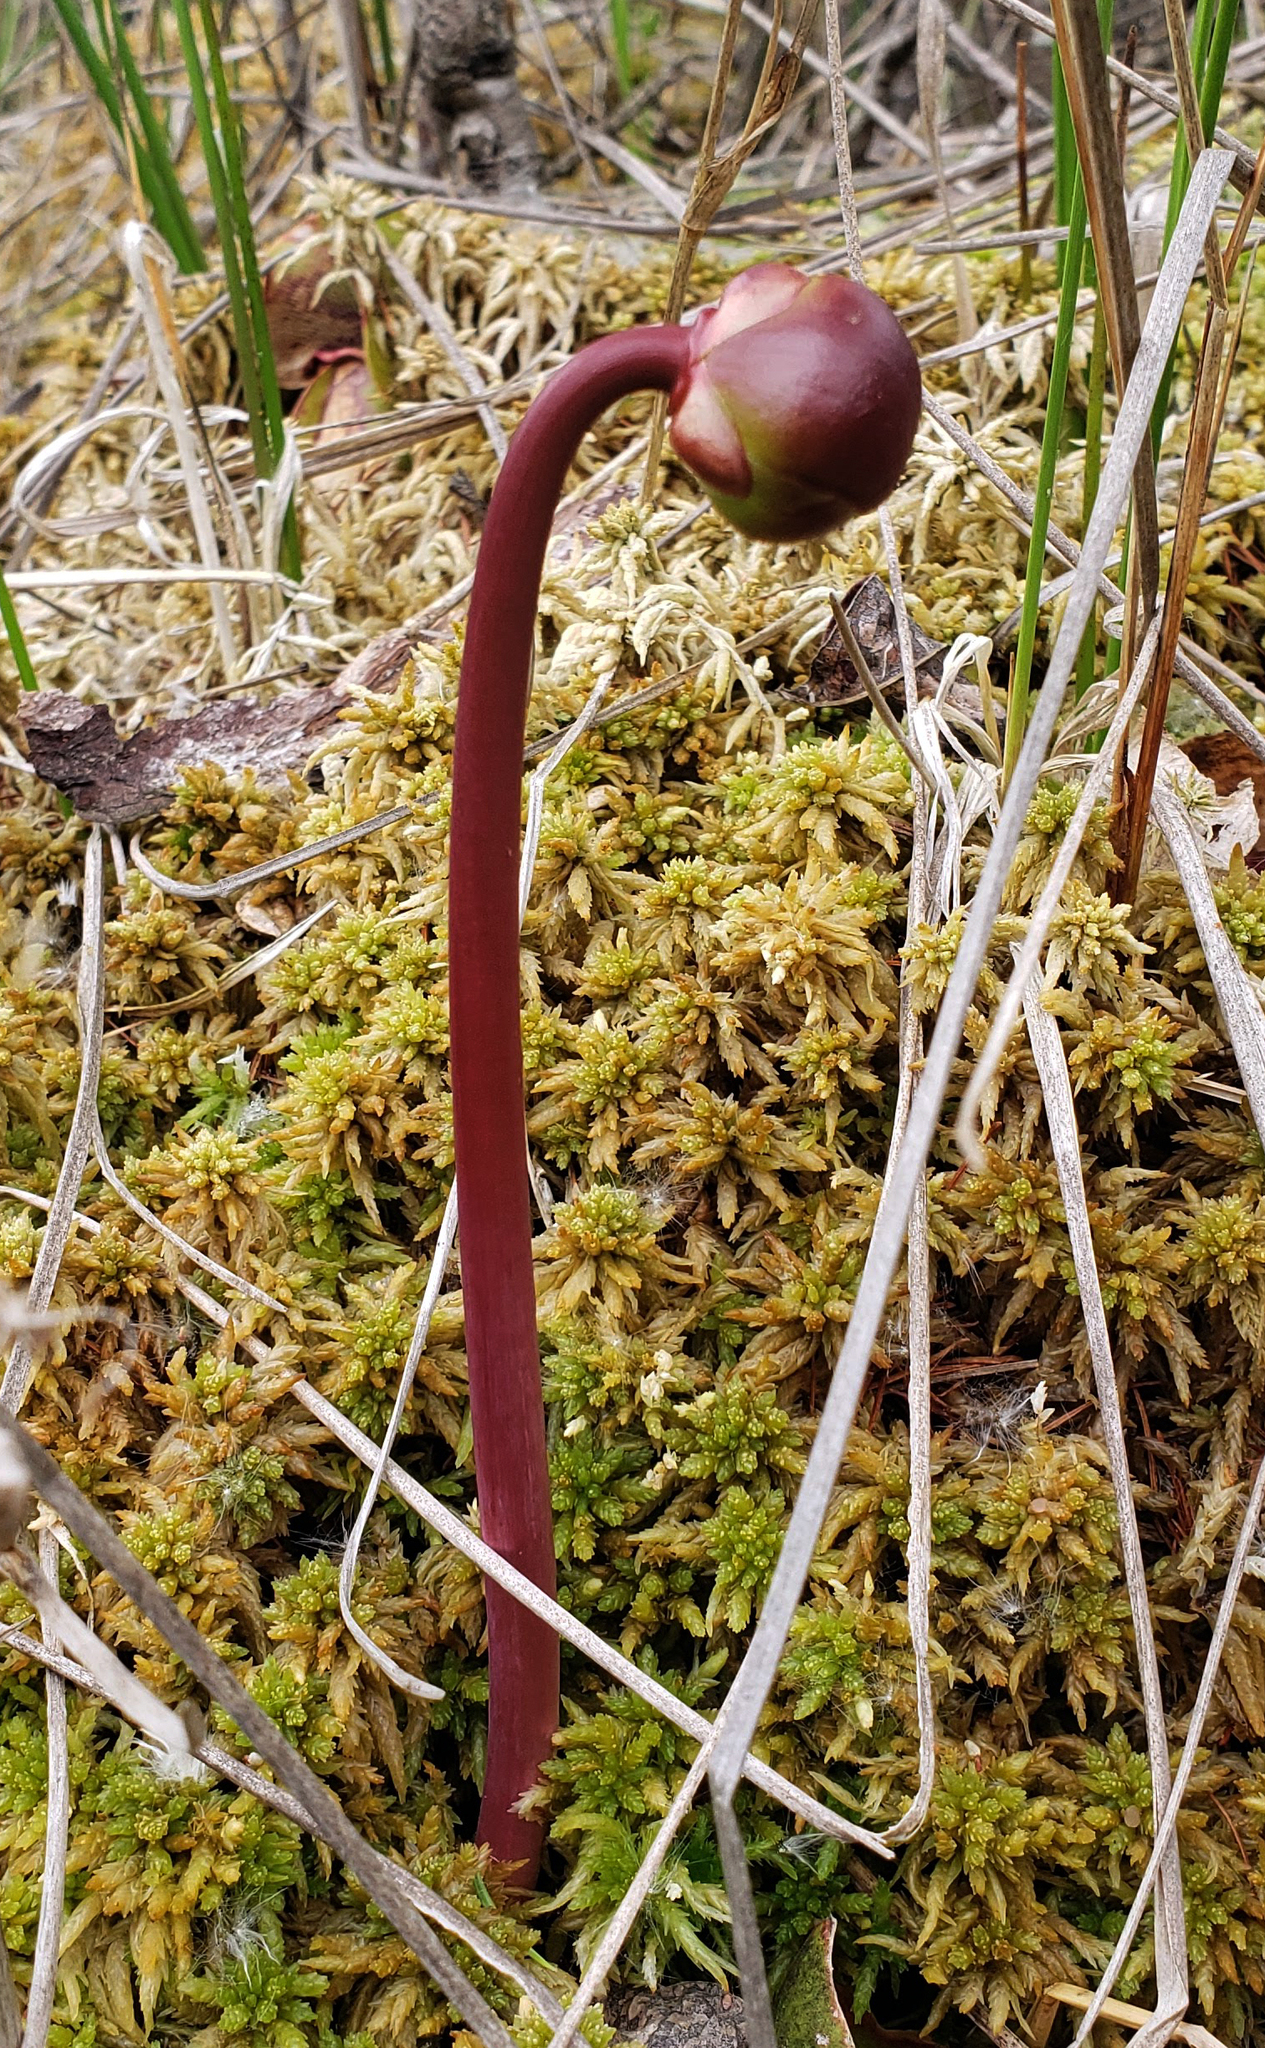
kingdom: Plantae
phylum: Tracheophyta
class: Magnoliopsida
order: Ericales
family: Sarraceniaceae
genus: Sarracenia
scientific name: Sarracenia purpurea
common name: Pitcherplant
